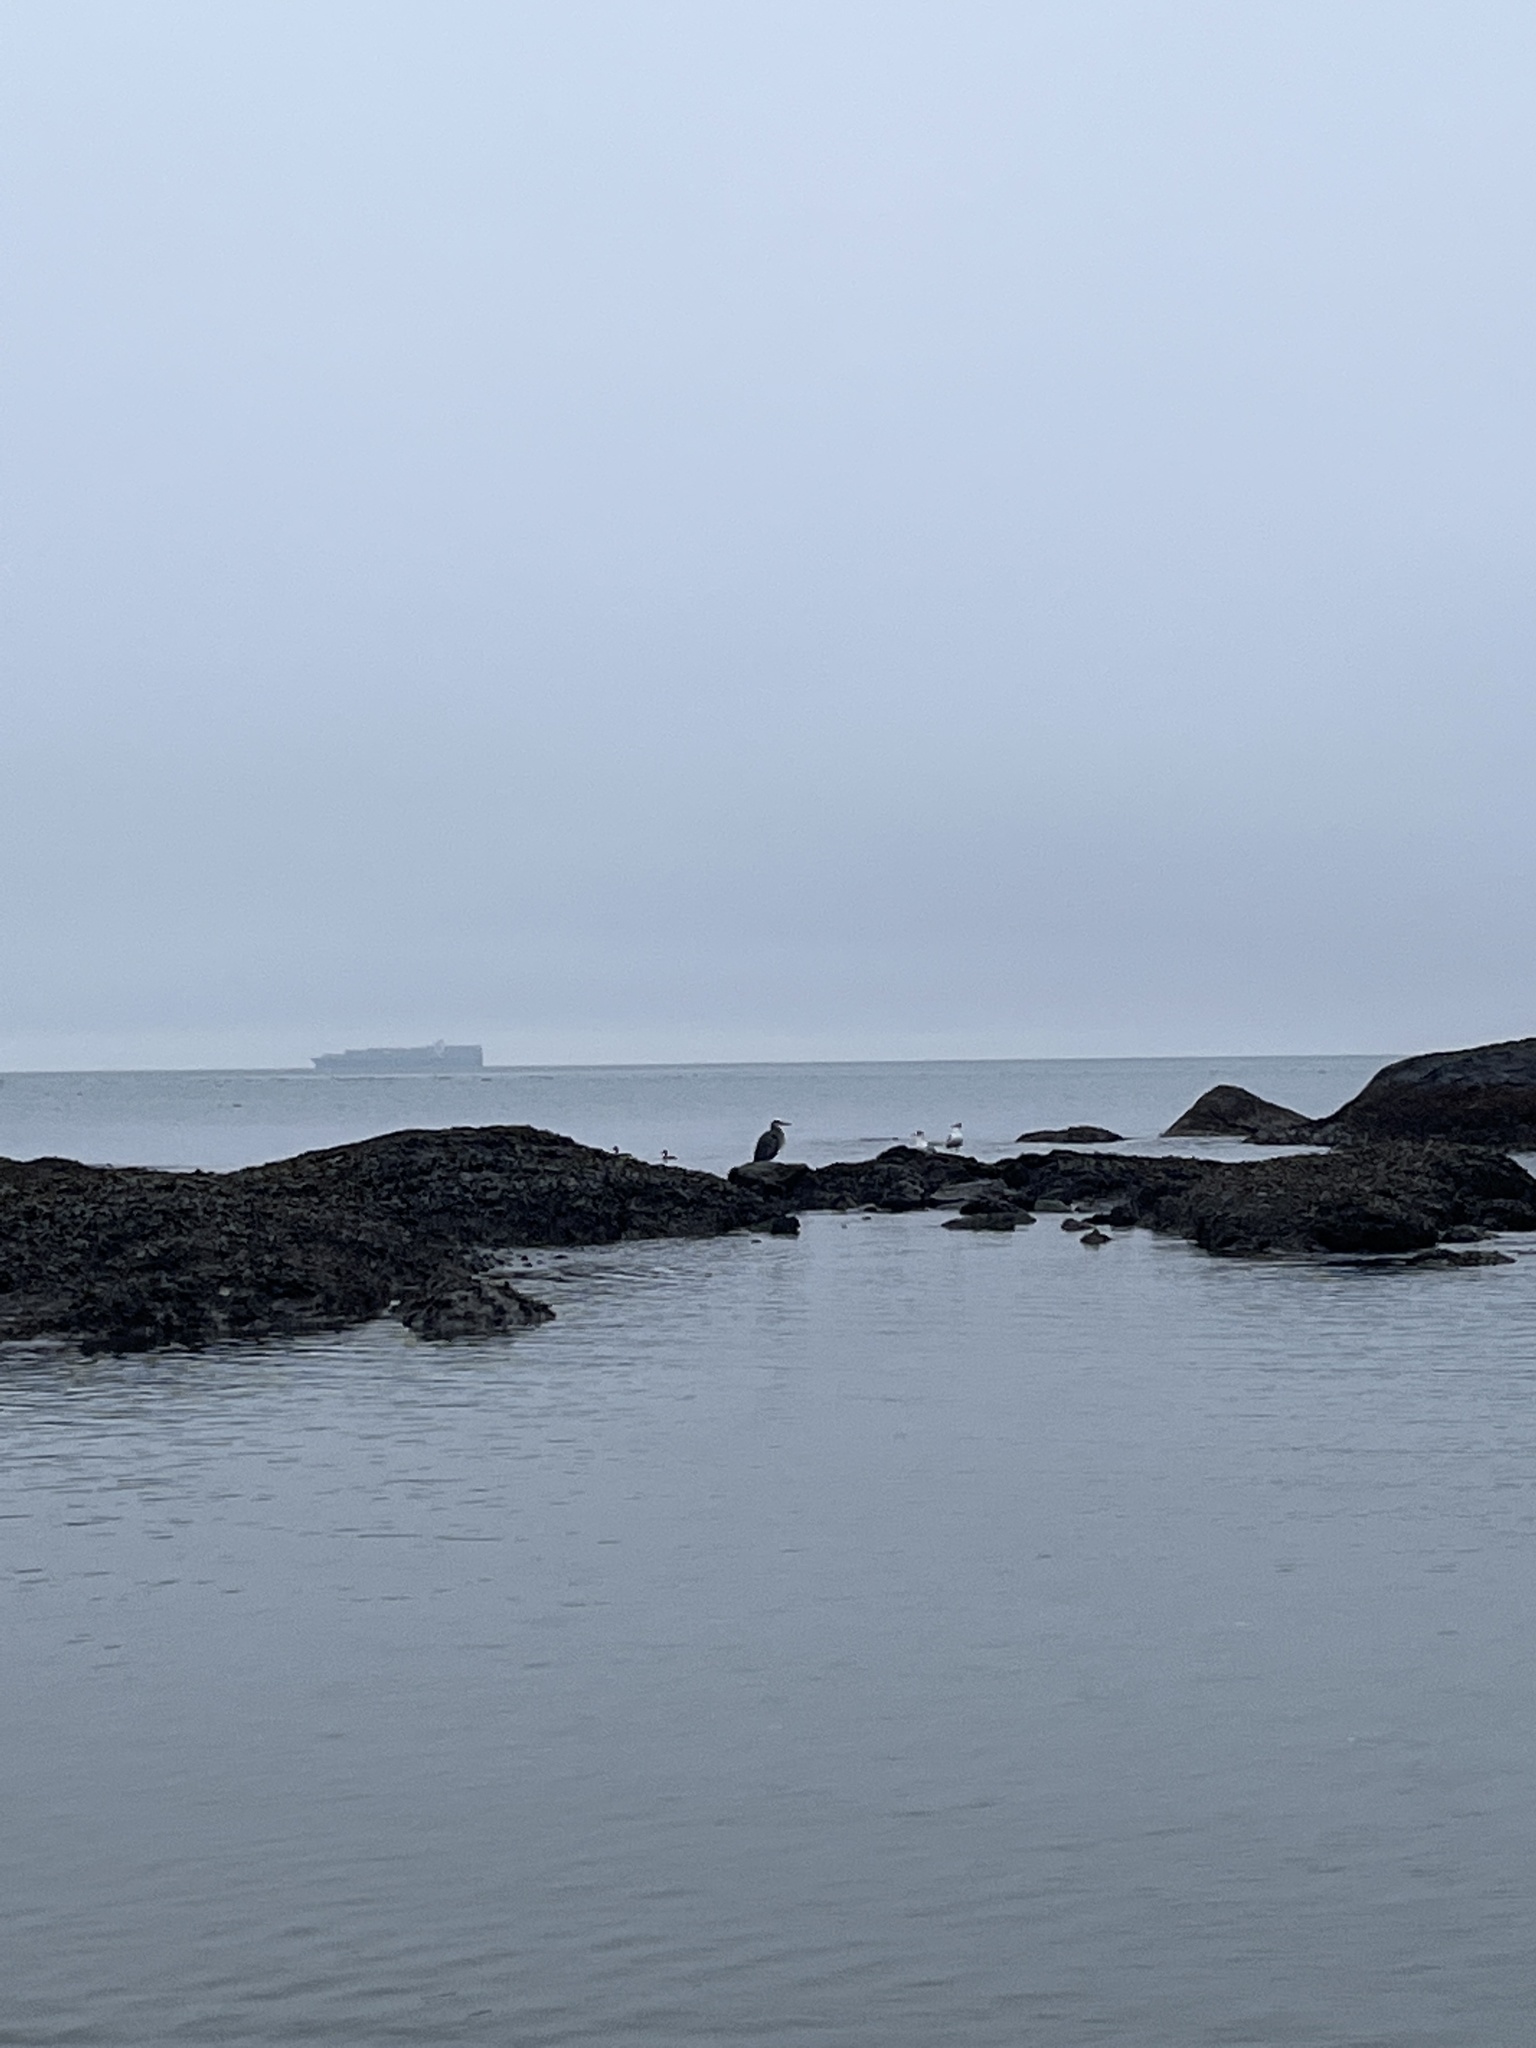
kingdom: Animalia
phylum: Chordata
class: Aves
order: Pelecaniformes
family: Ardeidae
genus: Ardea
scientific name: Ardea herodias
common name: Great blue heron
